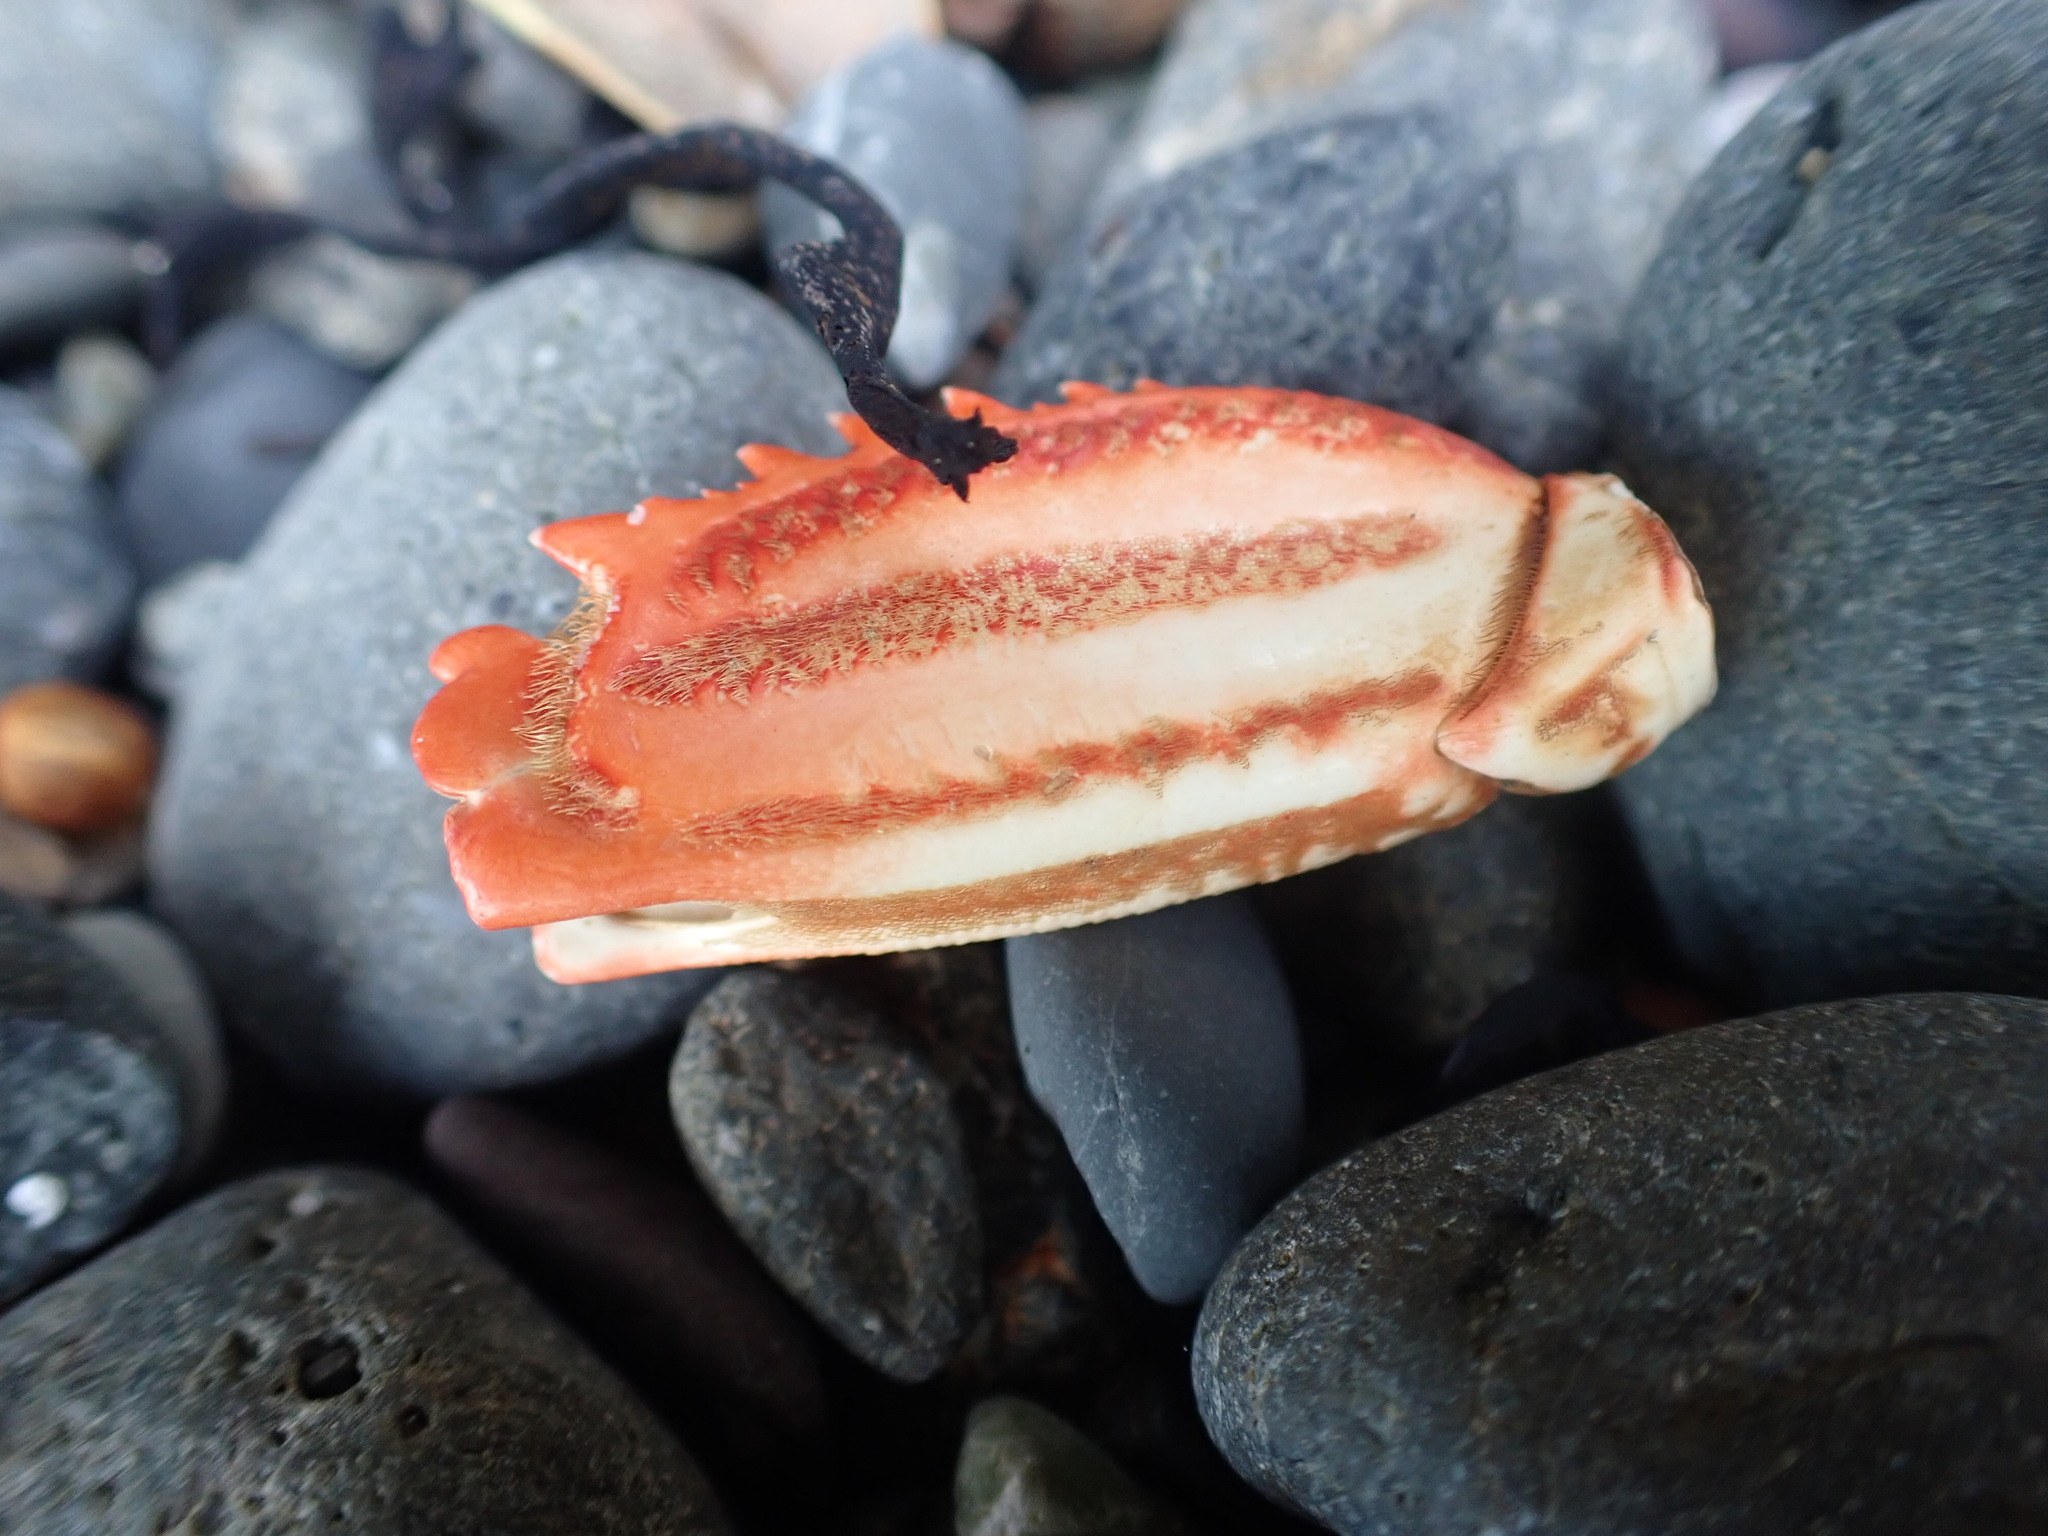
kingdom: Animalia
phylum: Arthropoda
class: Malacostraca
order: Decapoda
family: Plagusiidae
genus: Guinusia
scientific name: Guinusia chabrus
